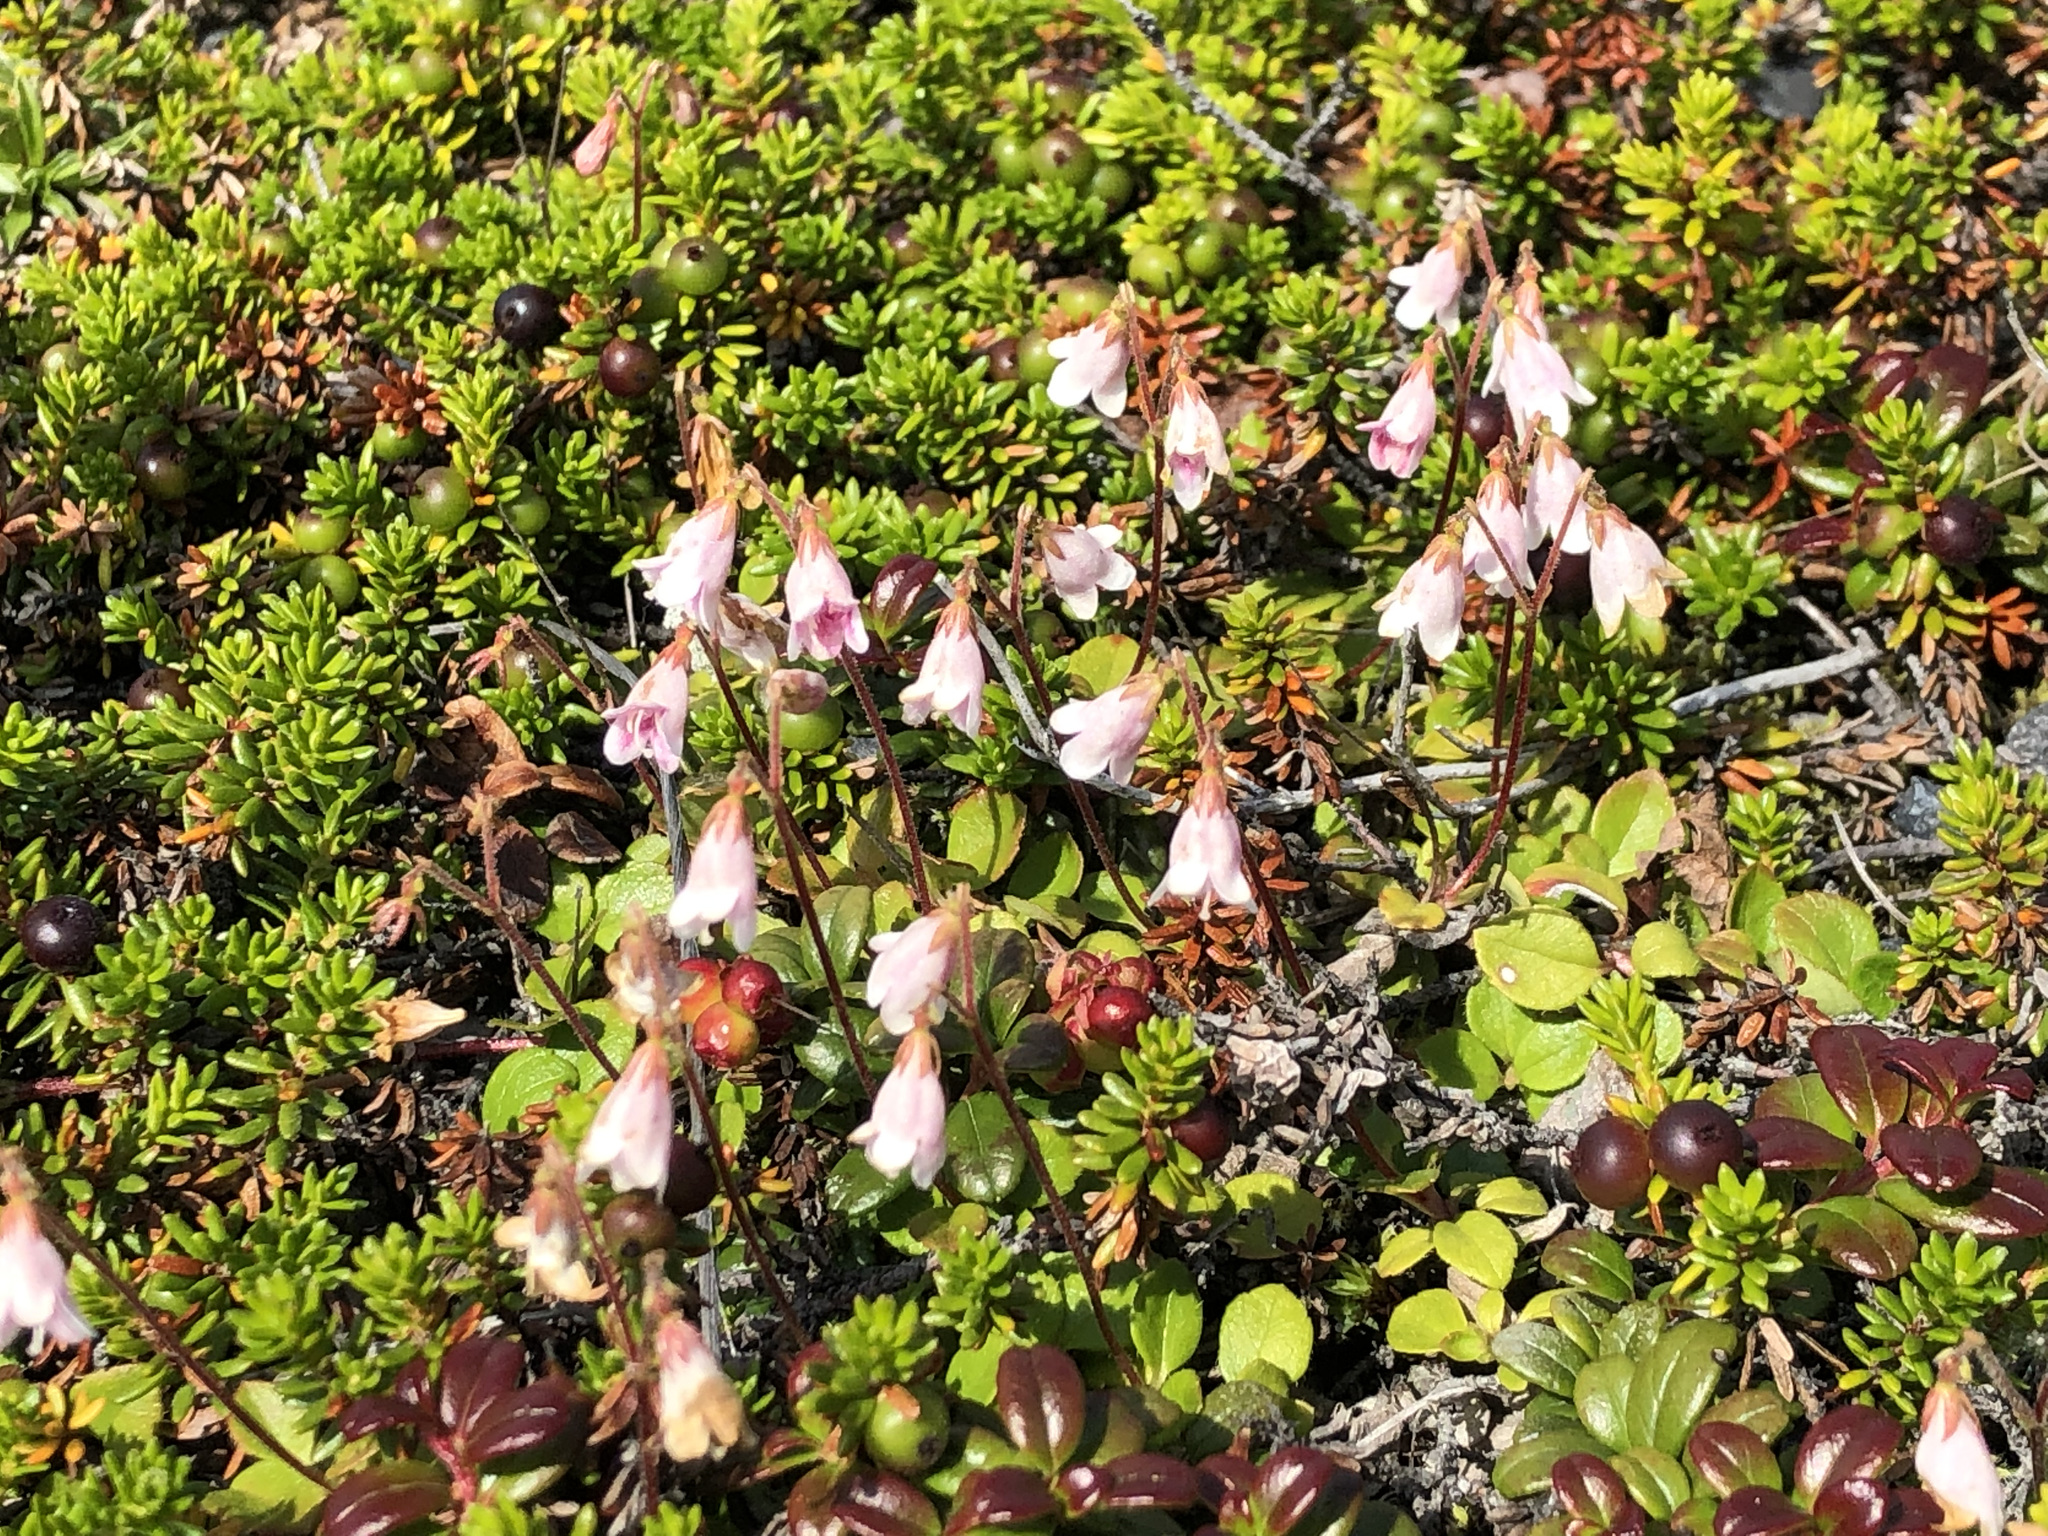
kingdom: Plantae
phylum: Tracheophyta
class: Magnoliopsida
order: Dipsacales
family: Caprifoliaceae
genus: Linnaea
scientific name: Linnaea borealis
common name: Twinflower
